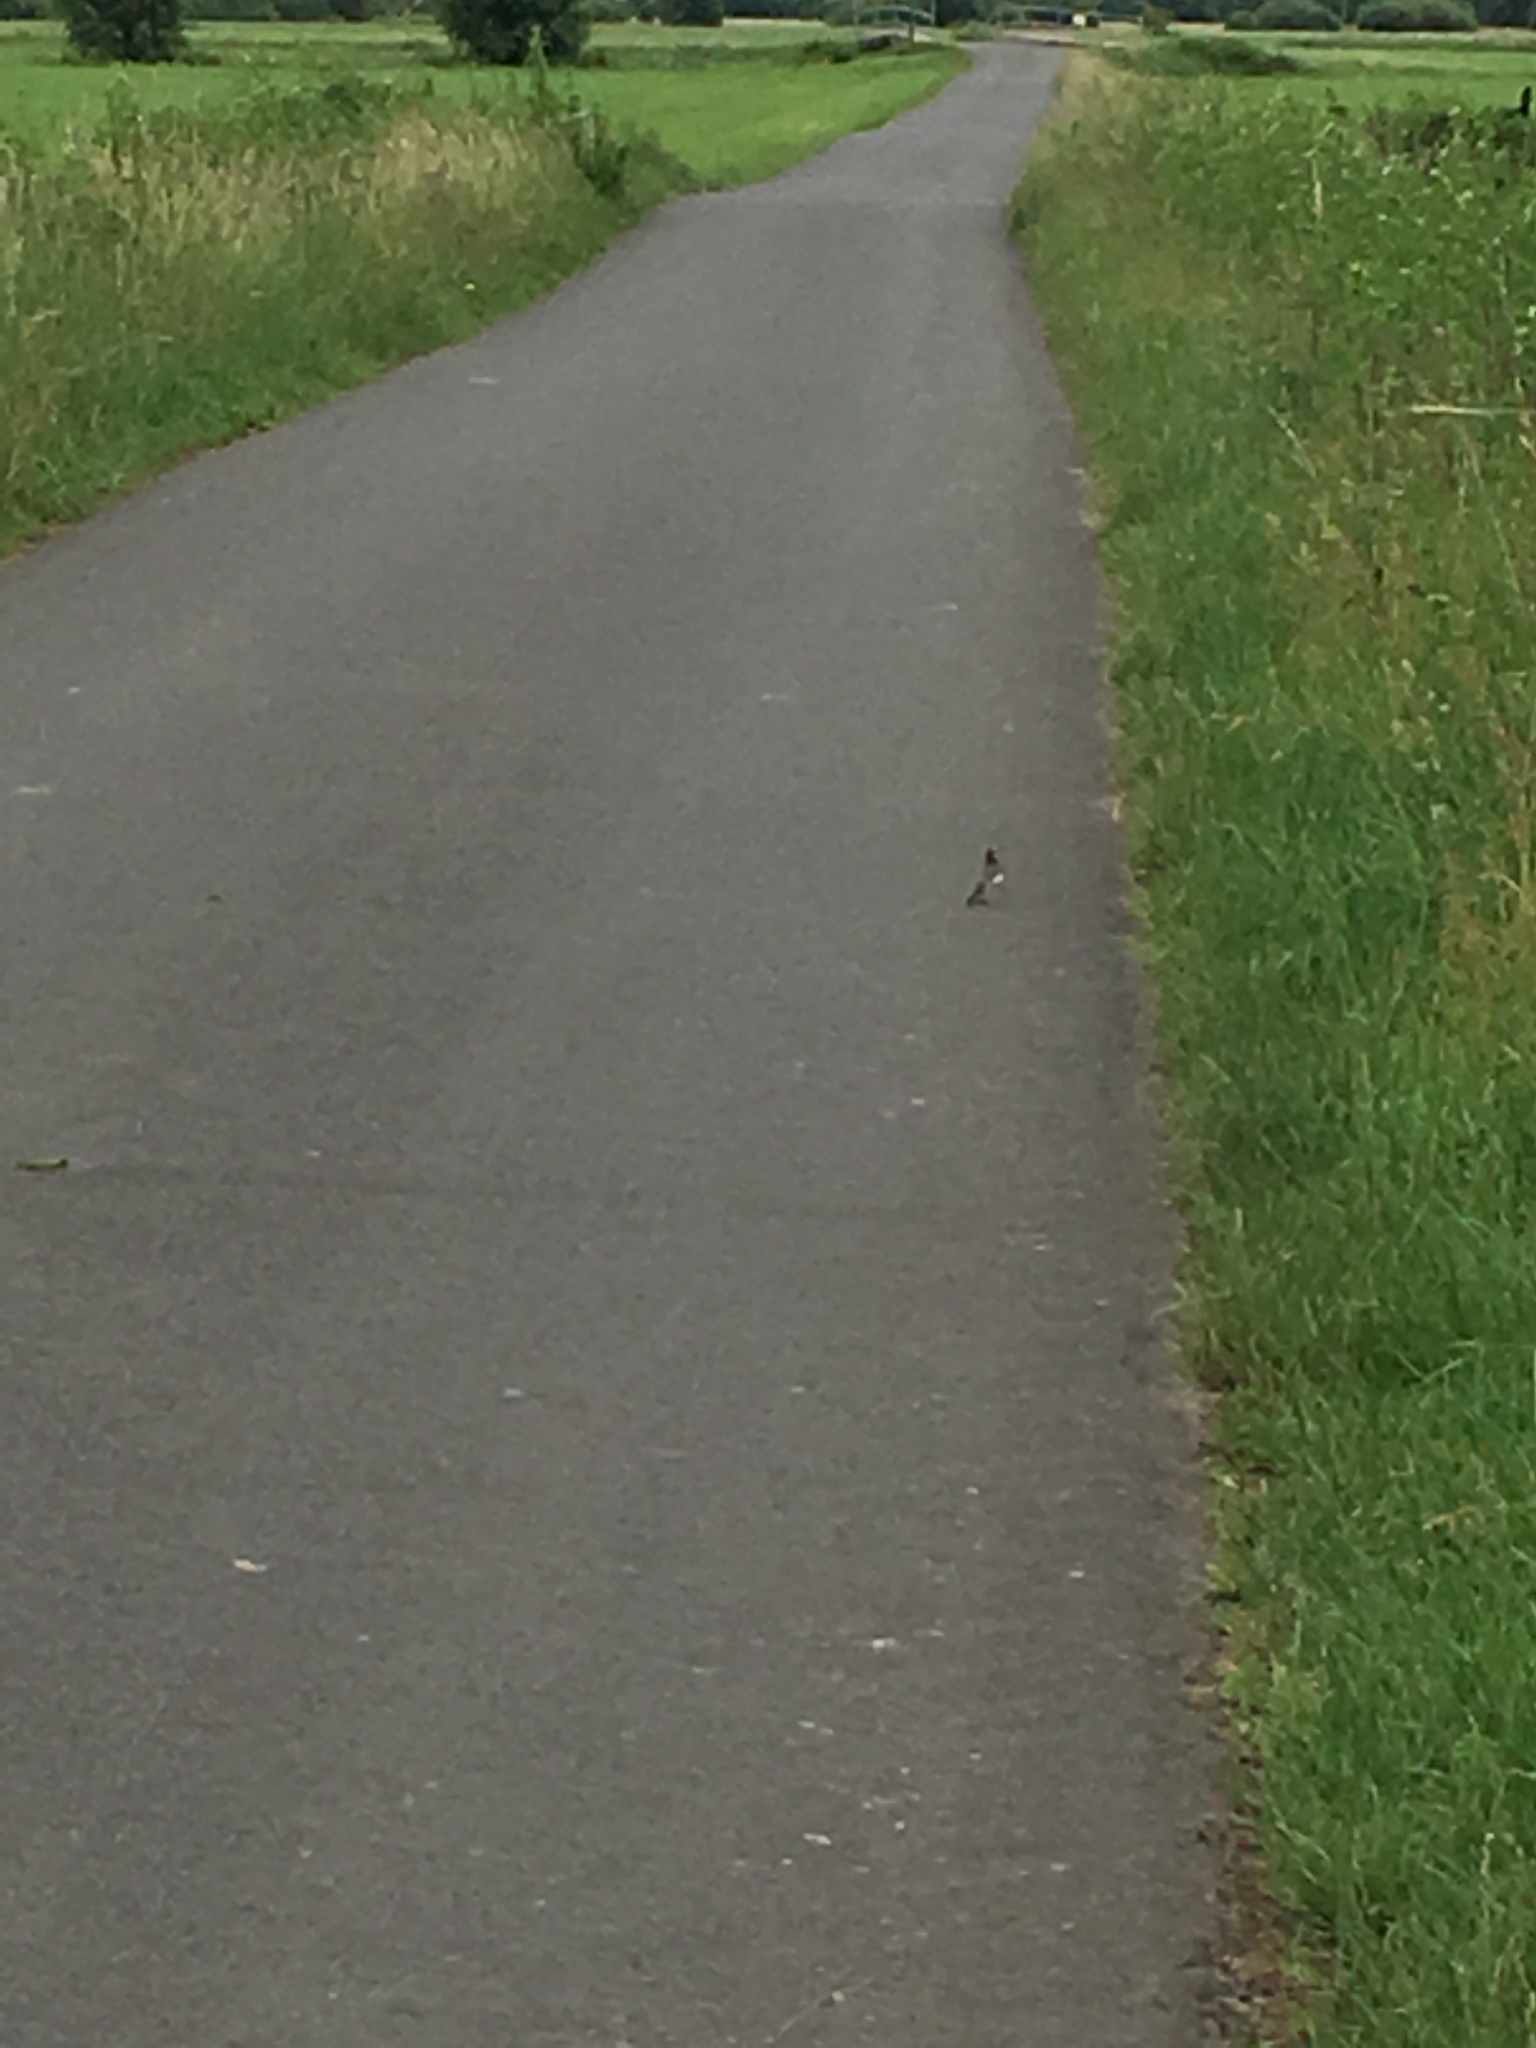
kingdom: Animalia
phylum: Chordata
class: Aves
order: Passeriformes
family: Motacillidae
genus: Motacilla
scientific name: Motacilla alba
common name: White wagtail
